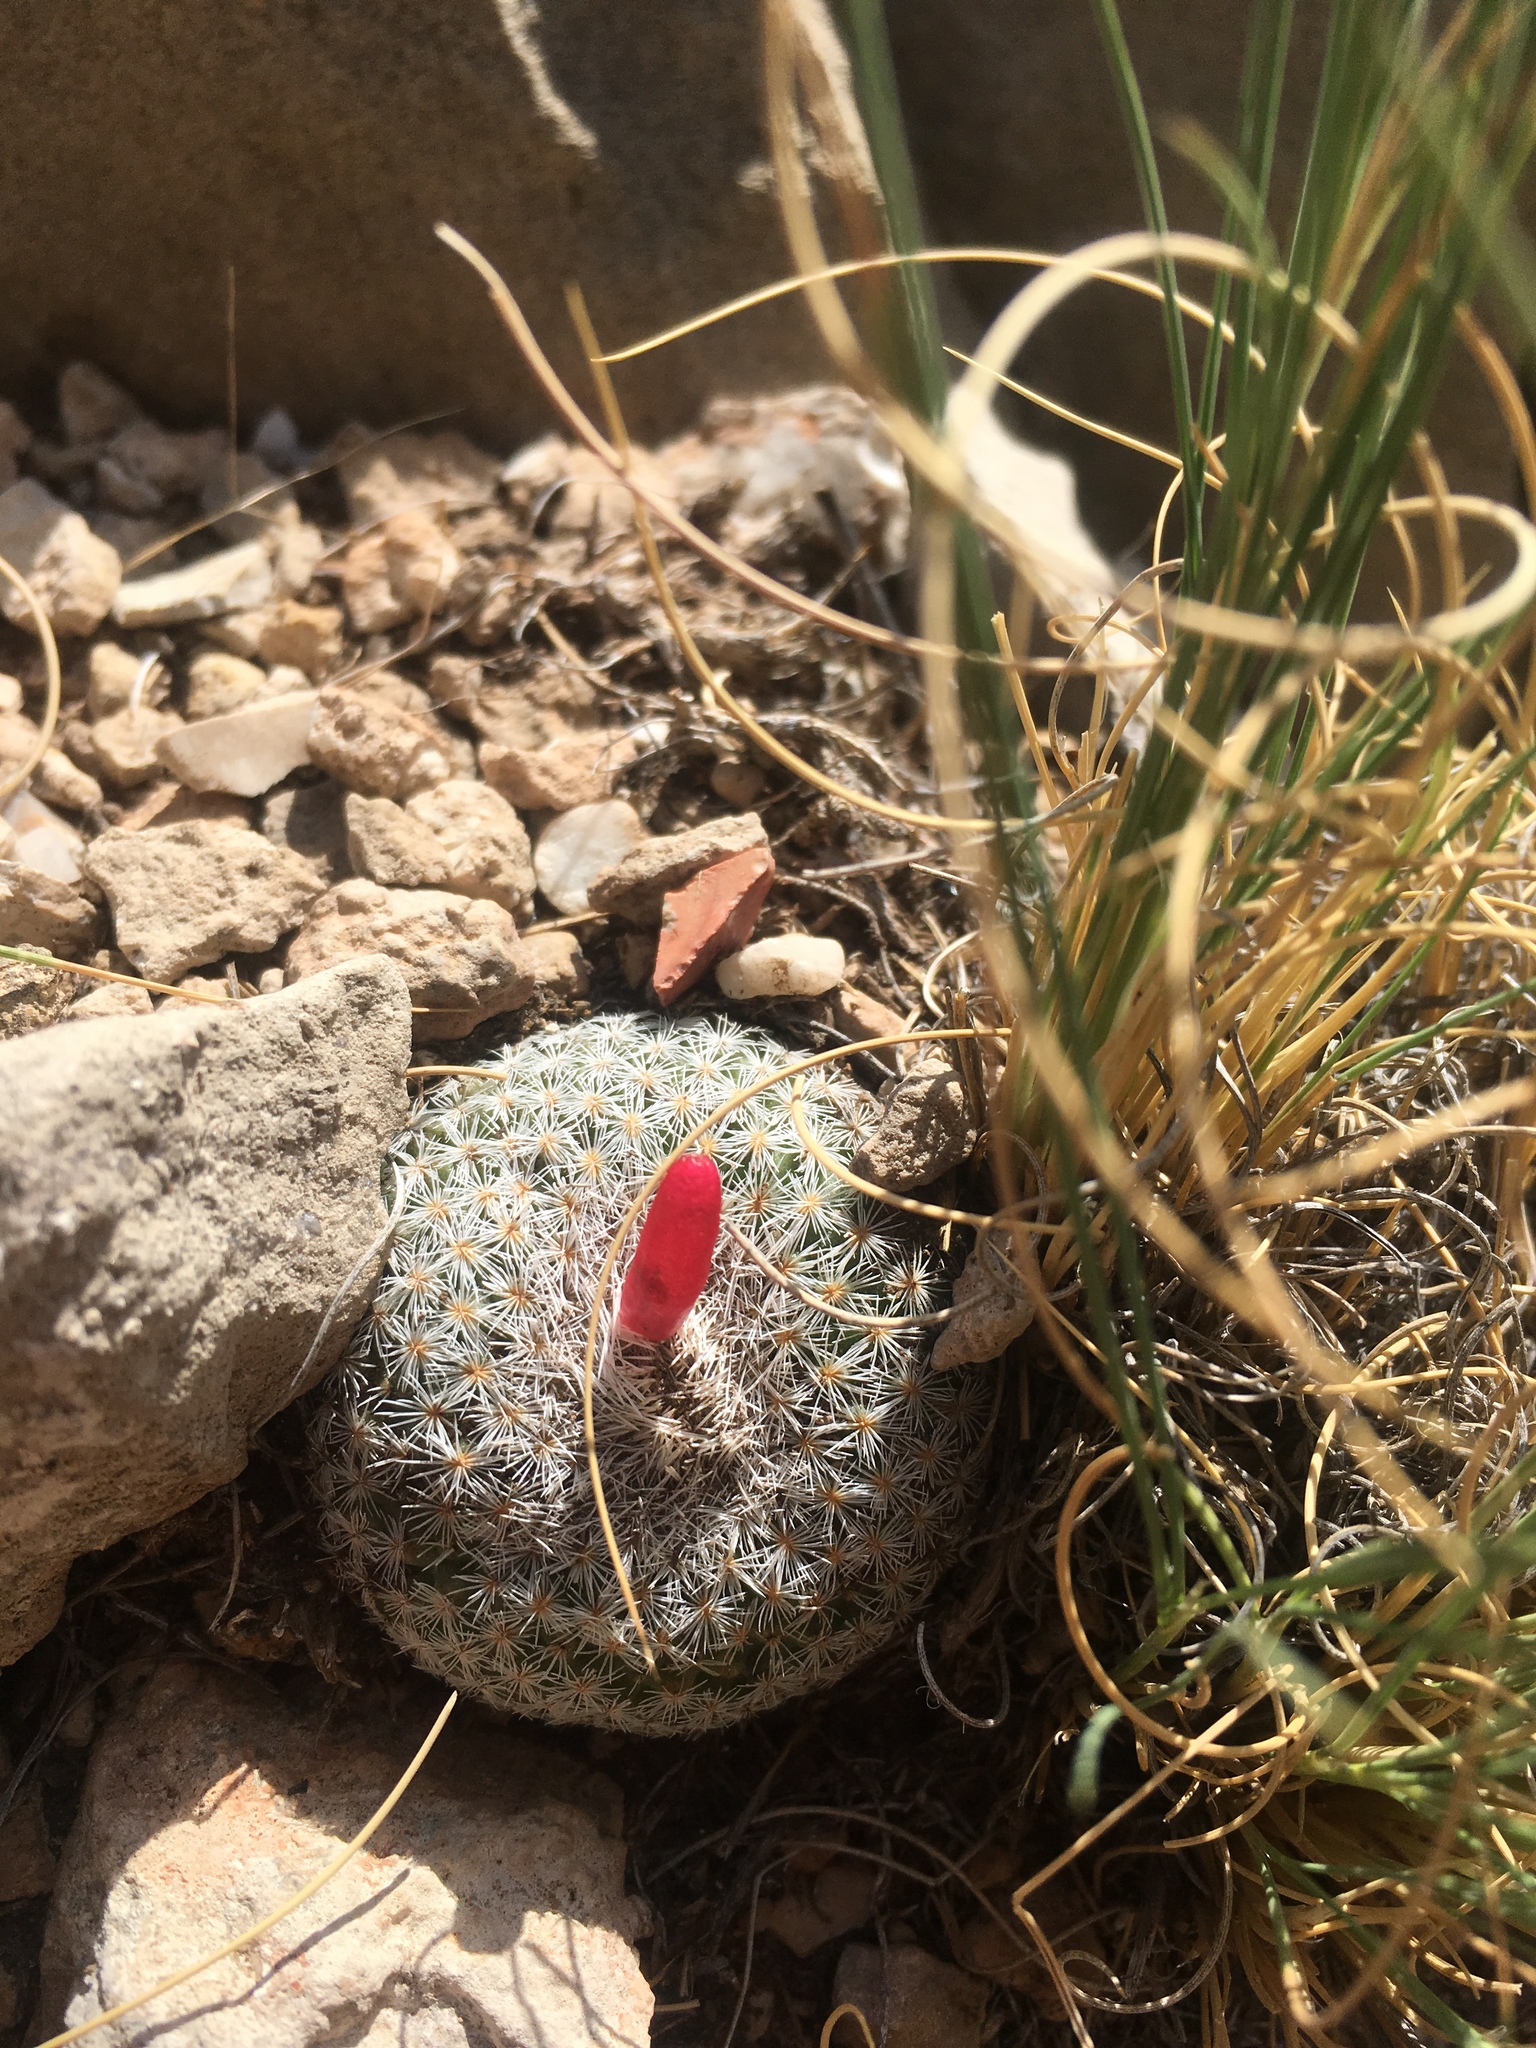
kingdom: Plantae
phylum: Tracheophyta
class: Magnoliopsida
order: Caryophyllales
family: Cactaceae
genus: Epithelantha
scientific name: Epithelantha micromeris
